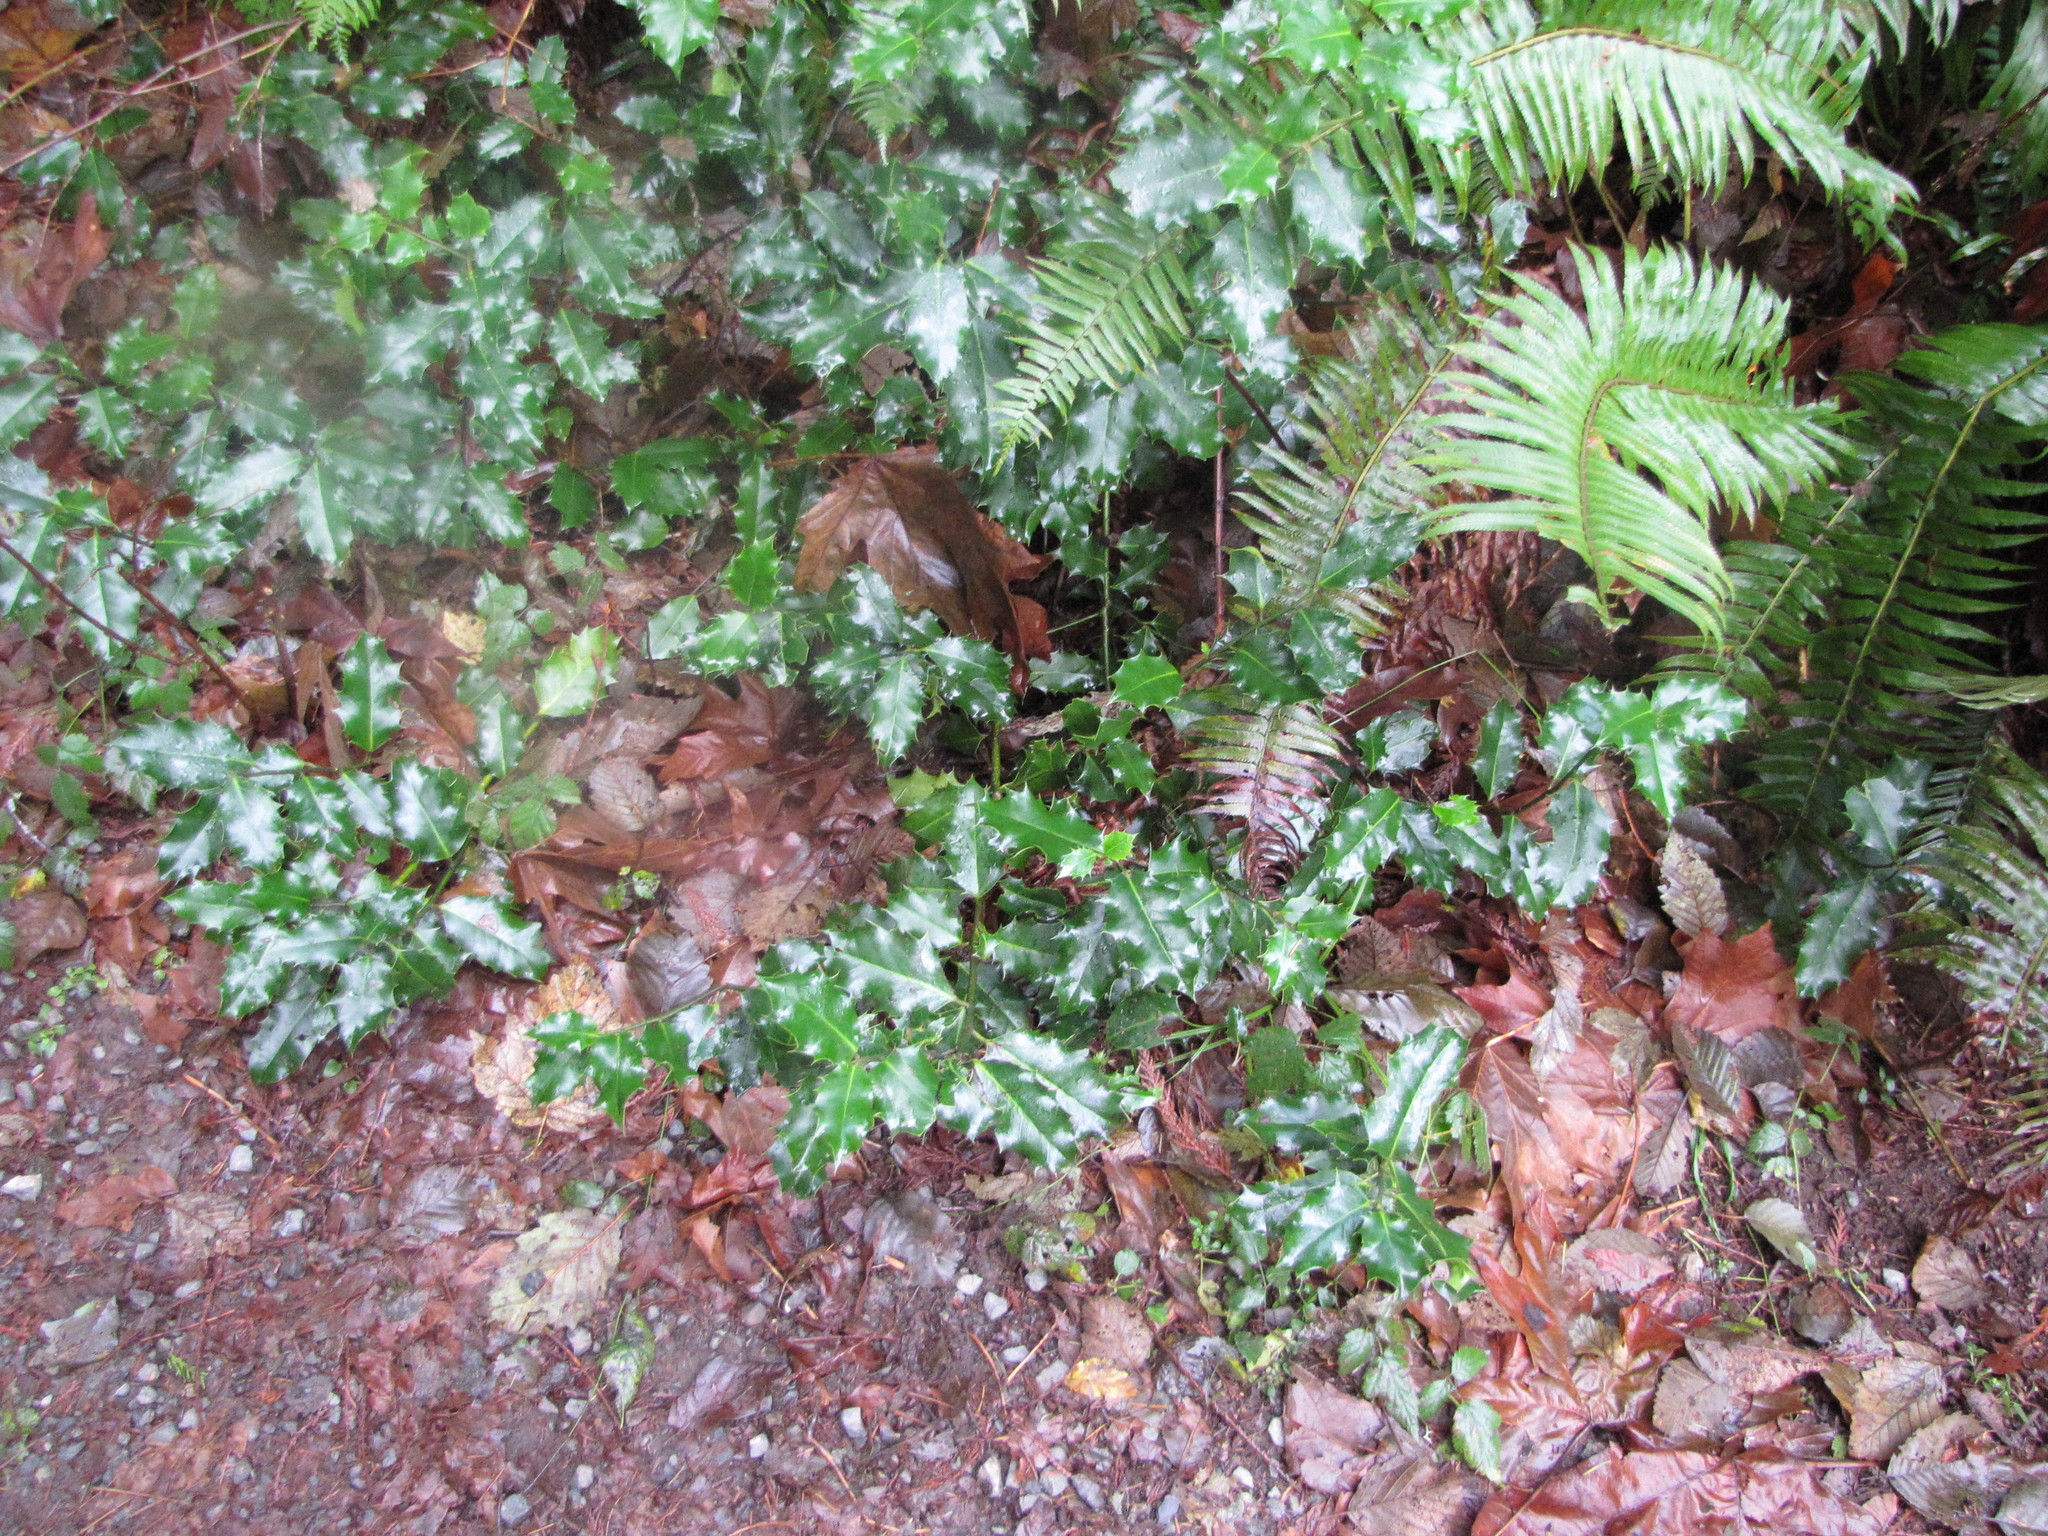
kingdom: Plantae
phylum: Tracheophyta
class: Magnoliopsida
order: Aquifoliales
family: Aquifoliaceae
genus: Ilex
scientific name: Ilex aquifolium
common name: English holly
